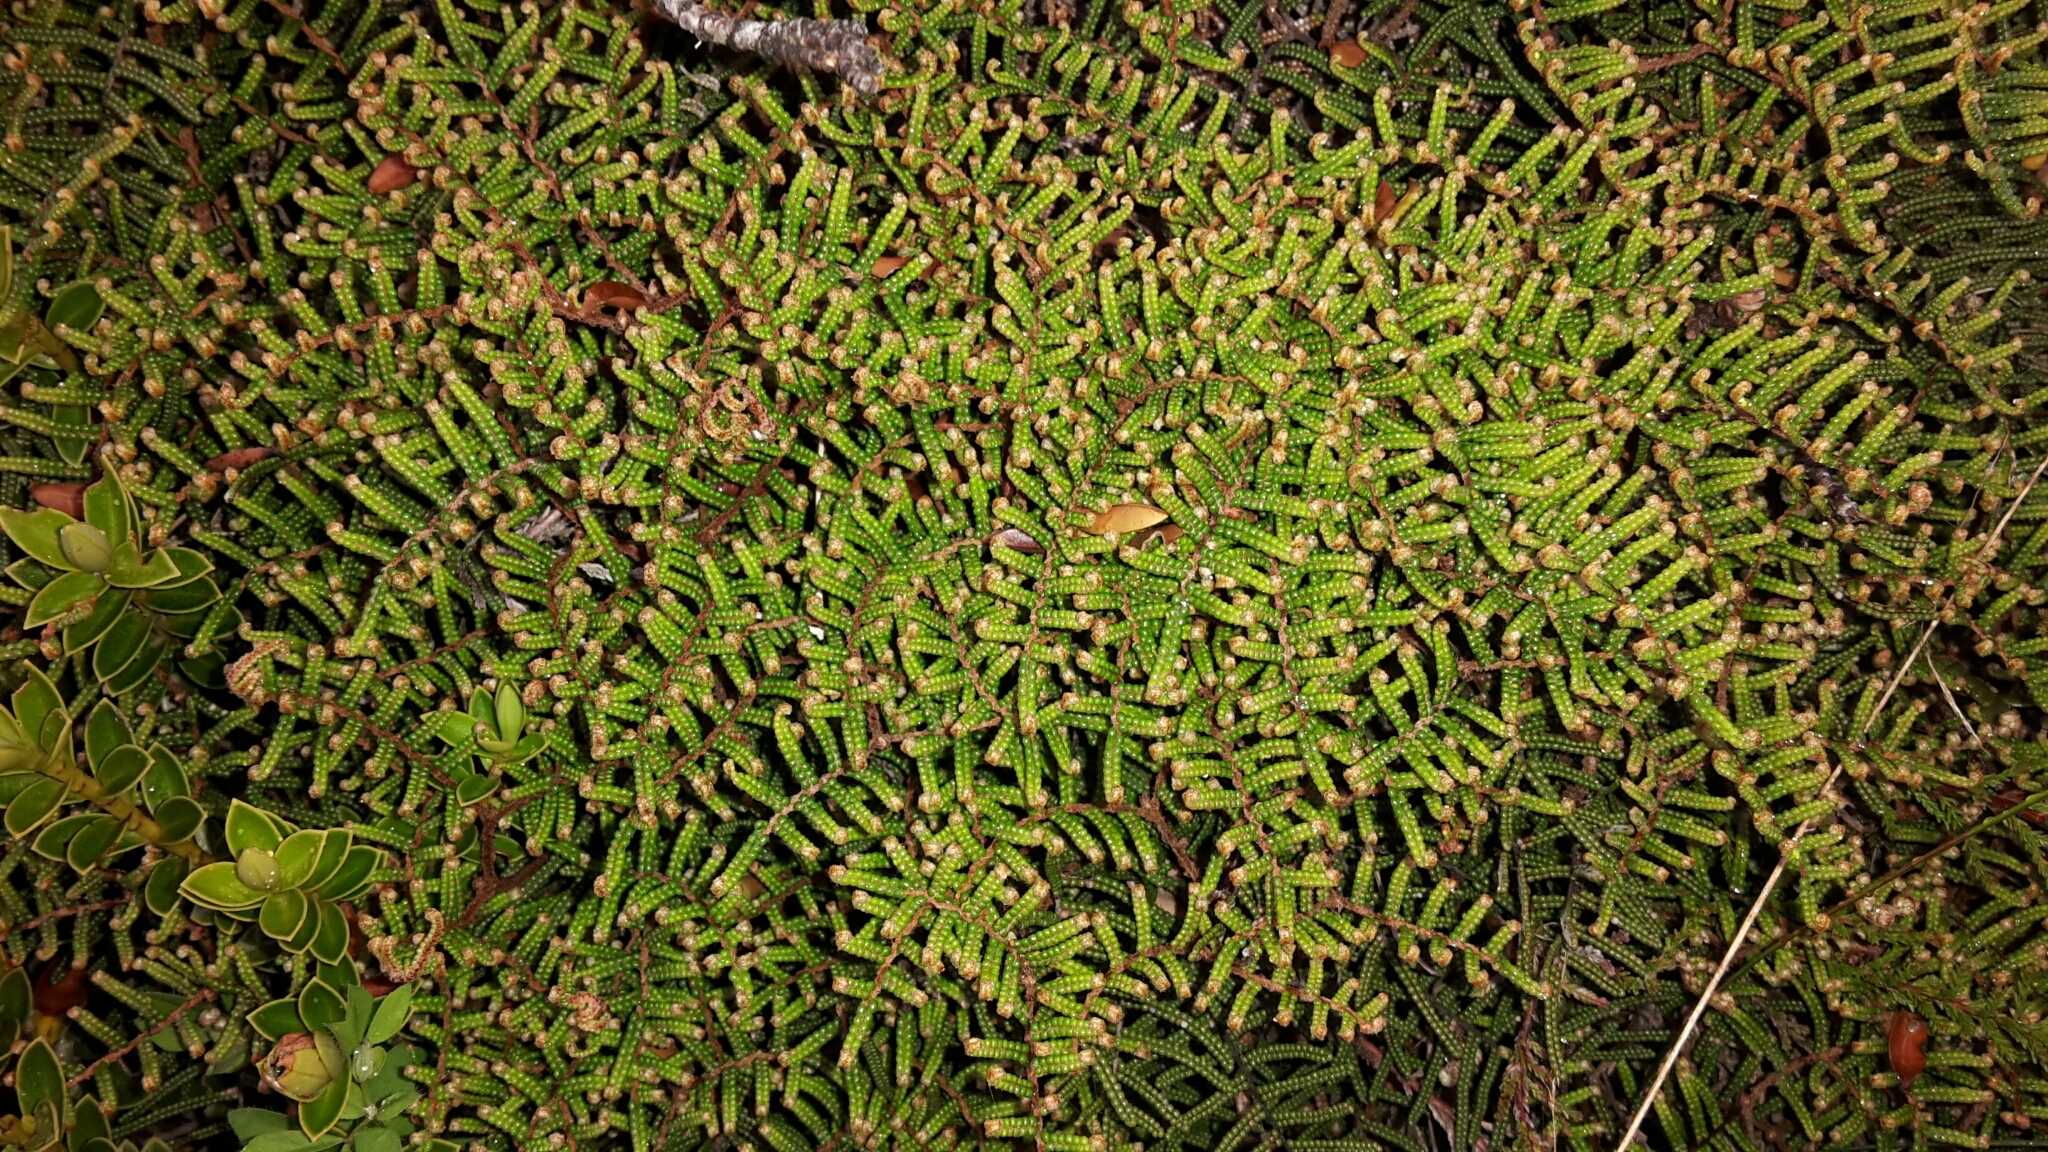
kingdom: Plantae
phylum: Tracheophyta
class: Polypodiopsida
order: Gleicheniales
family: Gleicheniaceae
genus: Gleichenia
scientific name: Gleichenia alpina
